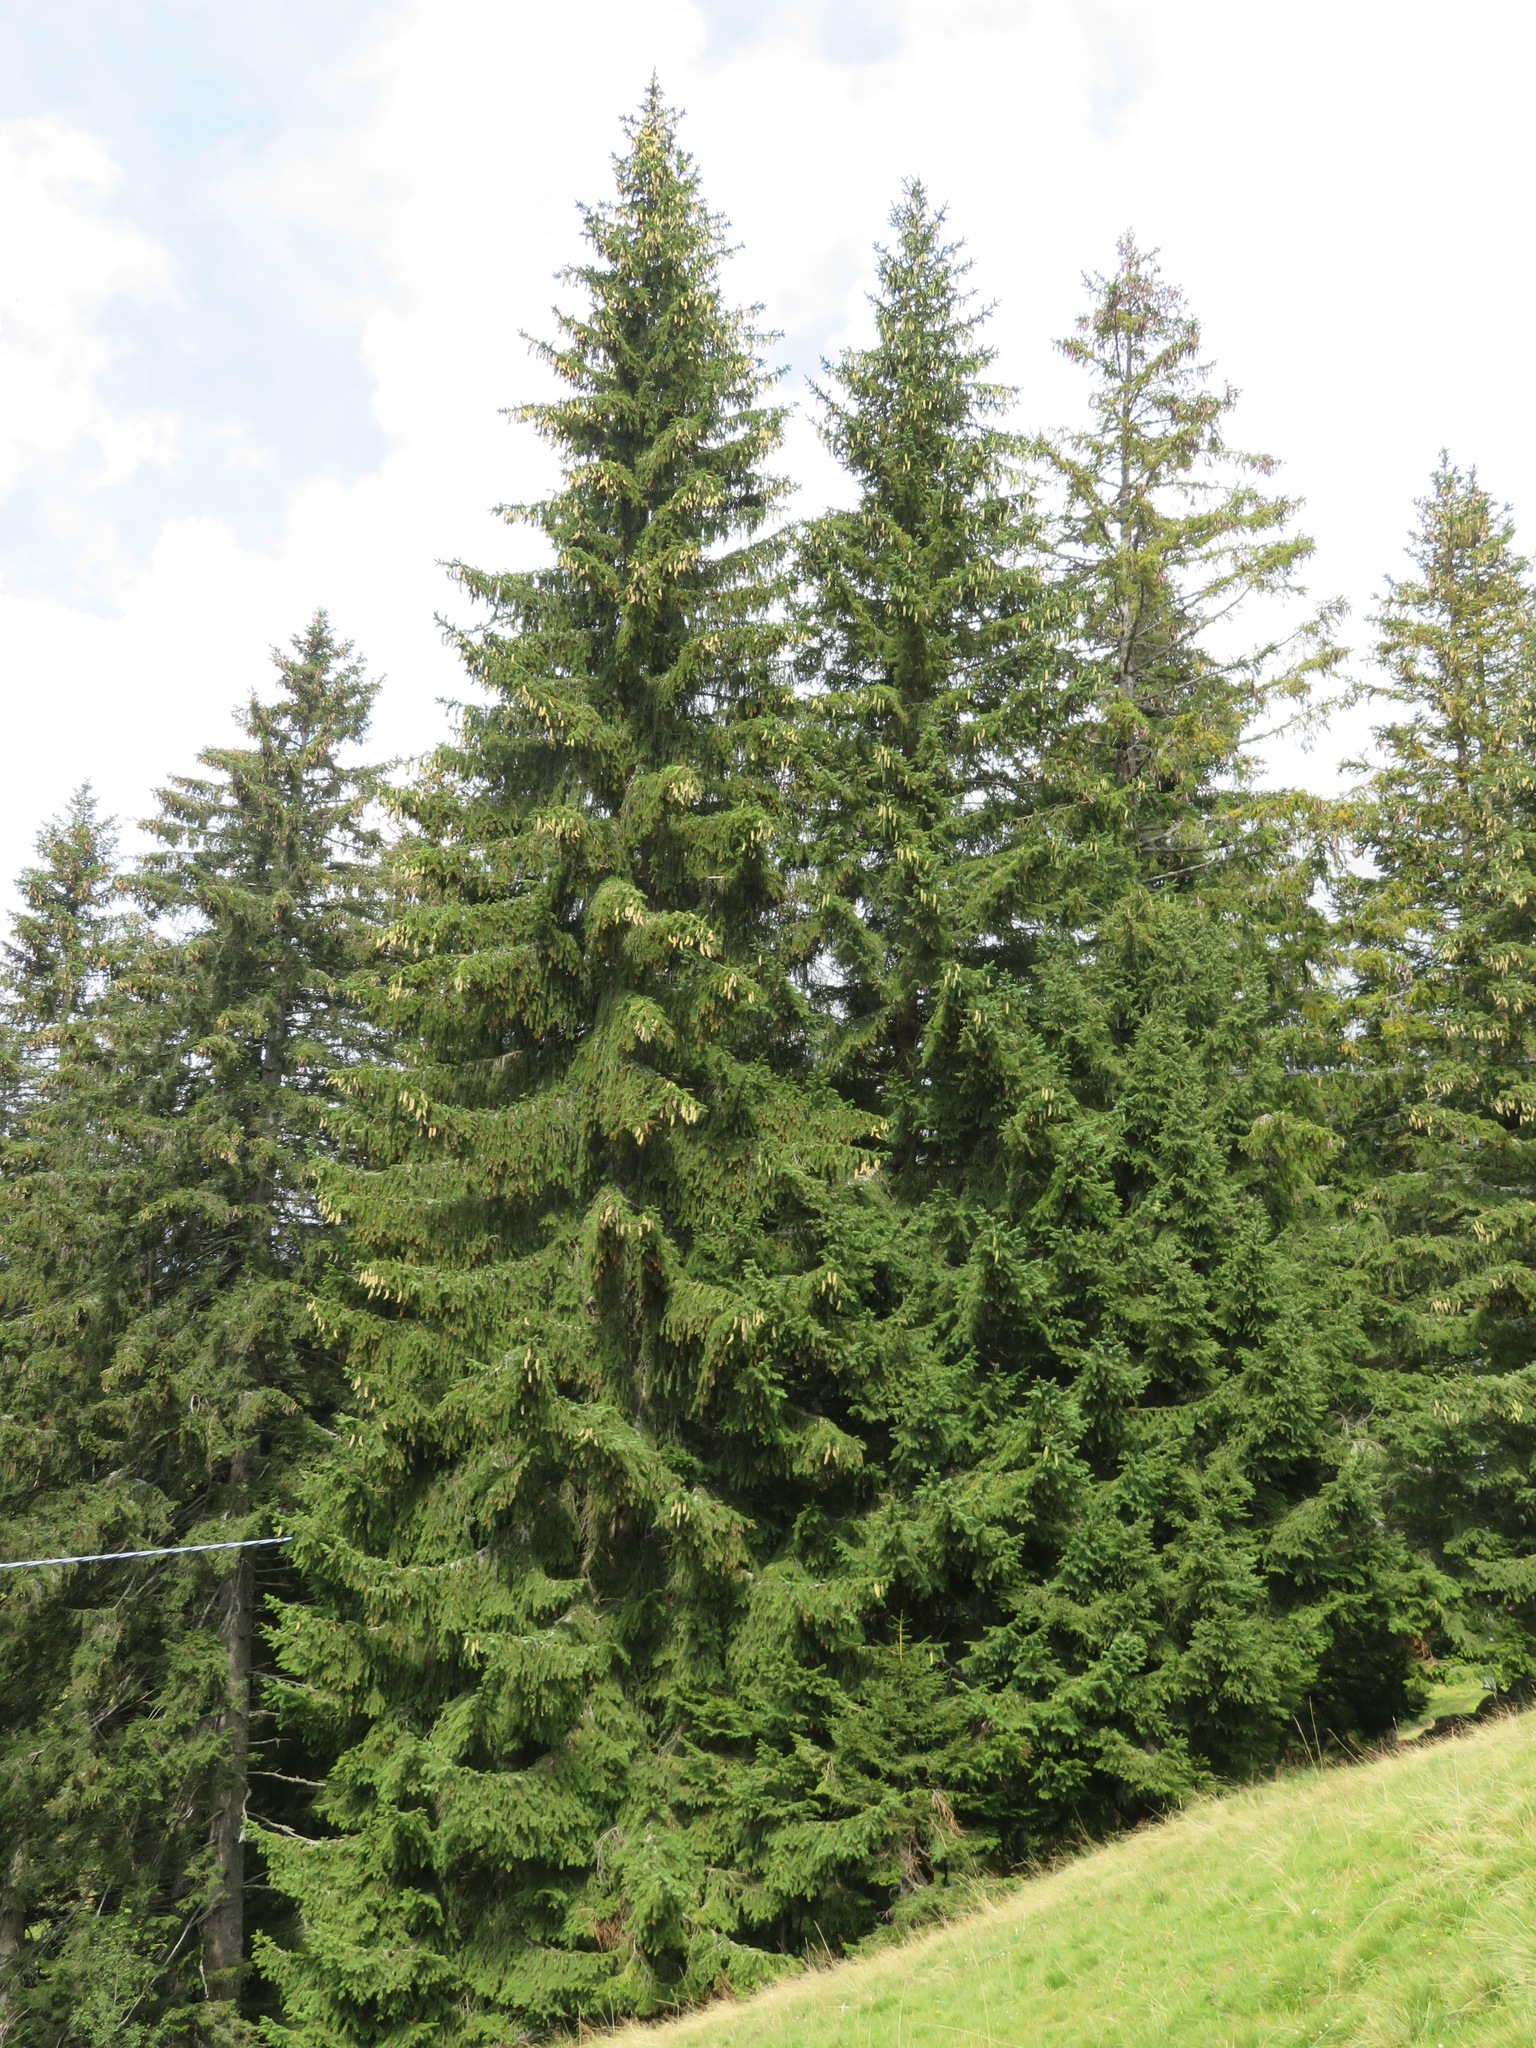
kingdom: Plantae
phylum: Tracheophyta
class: Pinopsida
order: Pinales
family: Pinaceae
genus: Picea
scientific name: Picea abies
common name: Norway spruce
